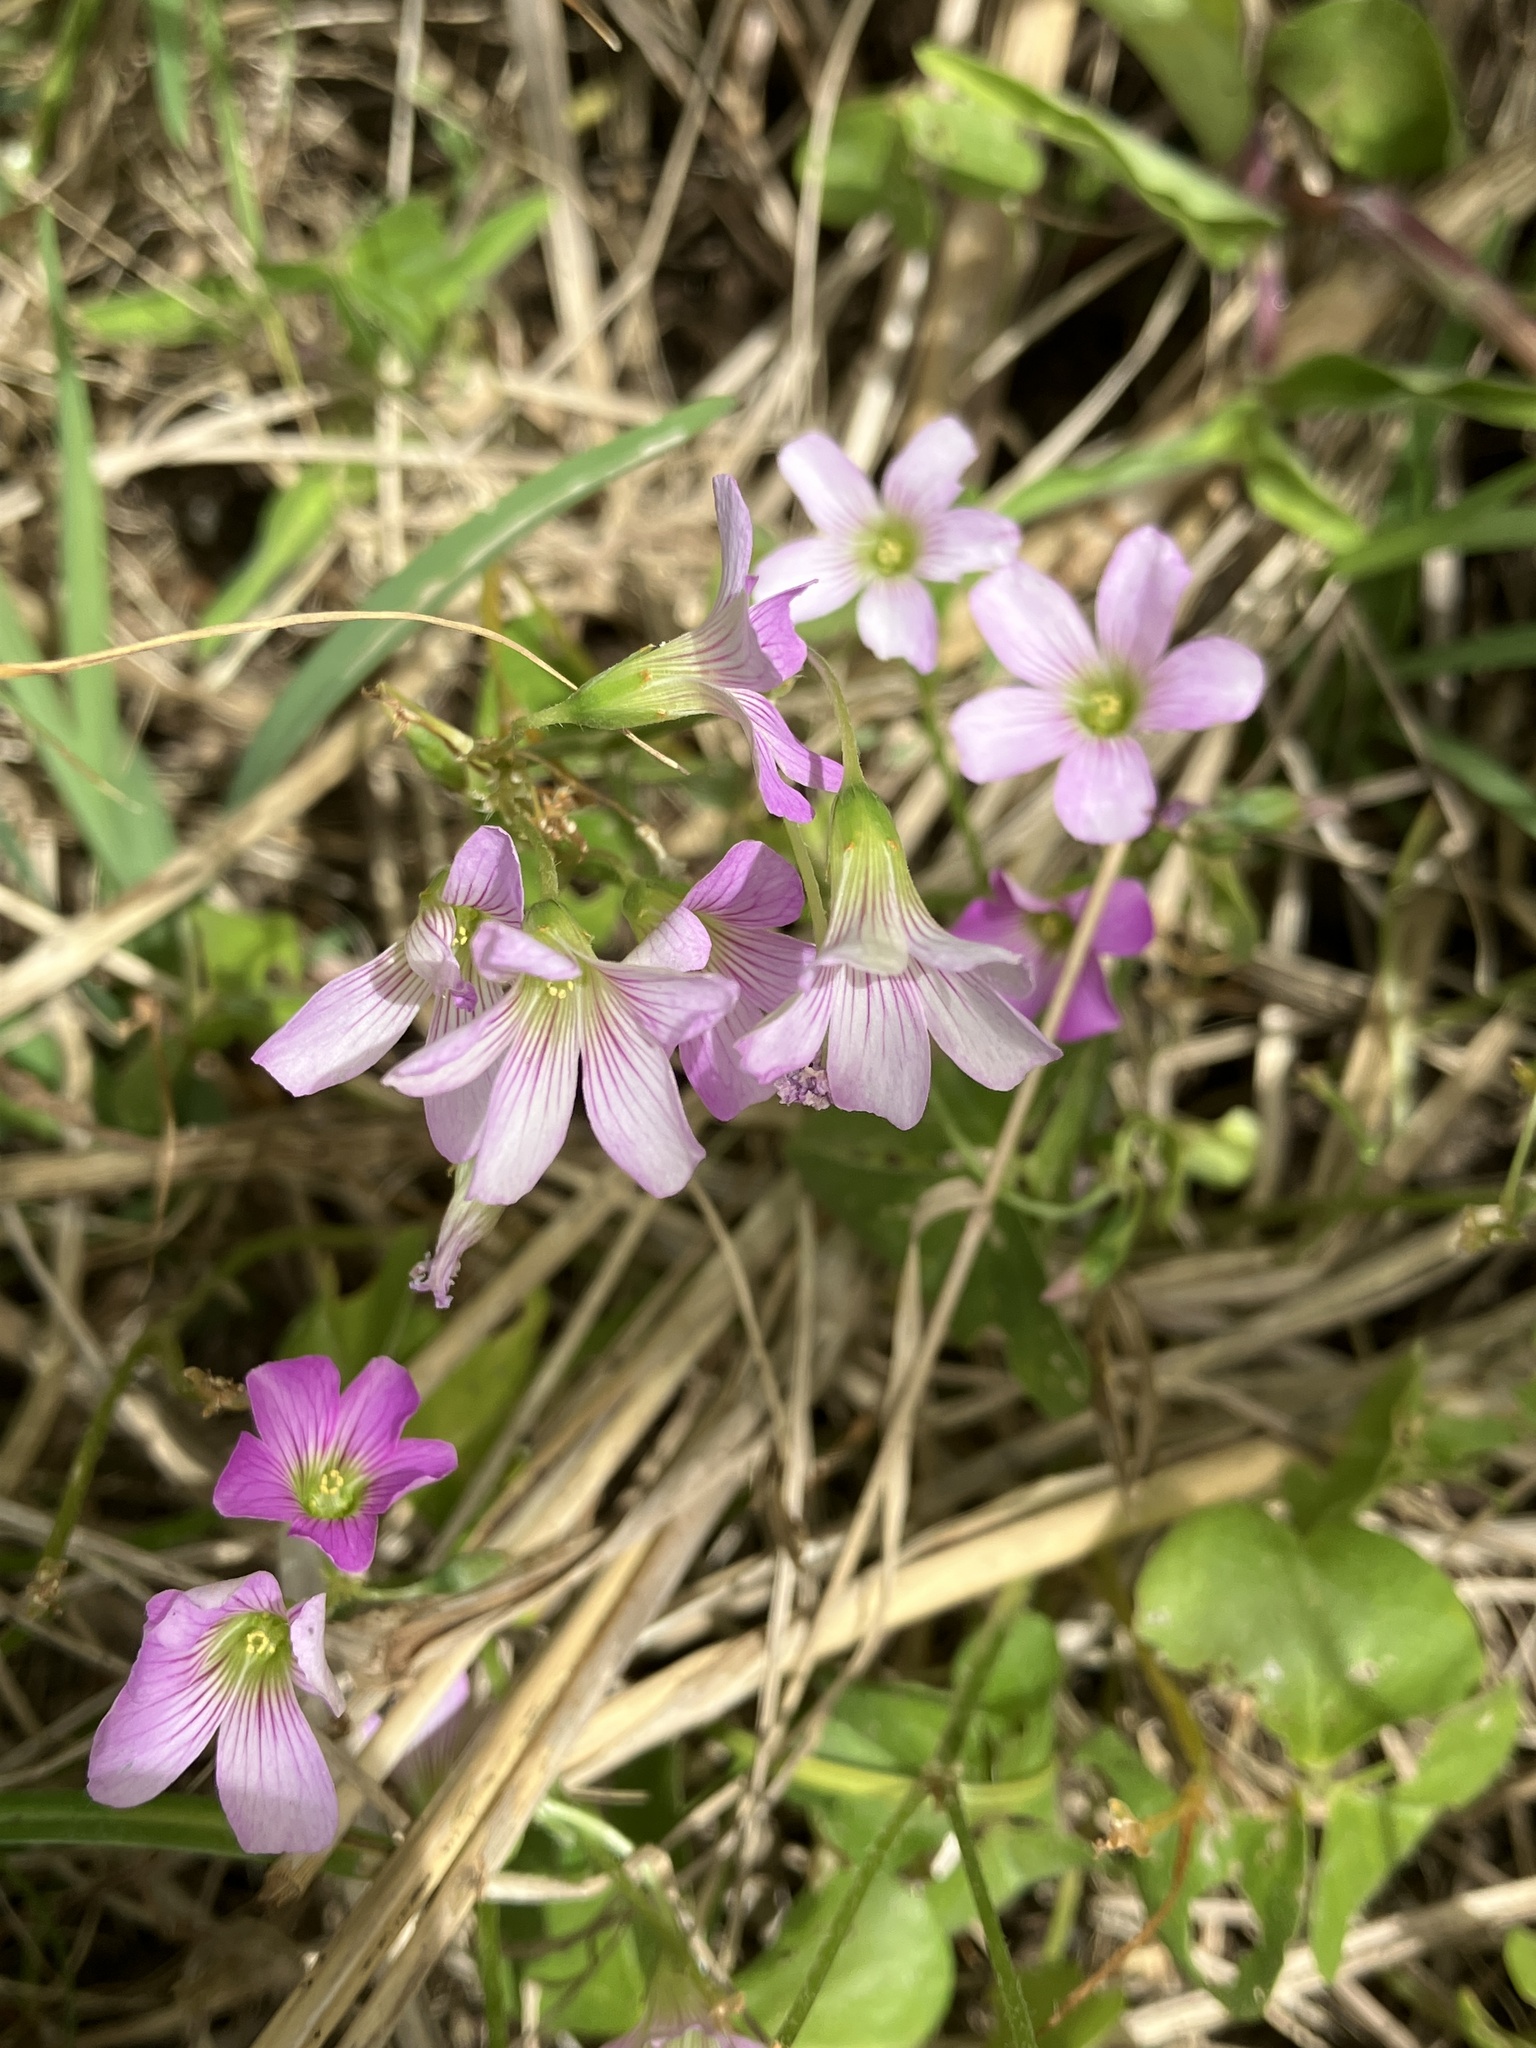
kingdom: Plantae
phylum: Tracheophyta
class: Magnoliopsida
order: Oxalidales
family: Oxalidaceae
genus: Oxalis
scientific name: Oxalis debilis
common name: Large-flowered pink-sorrel
